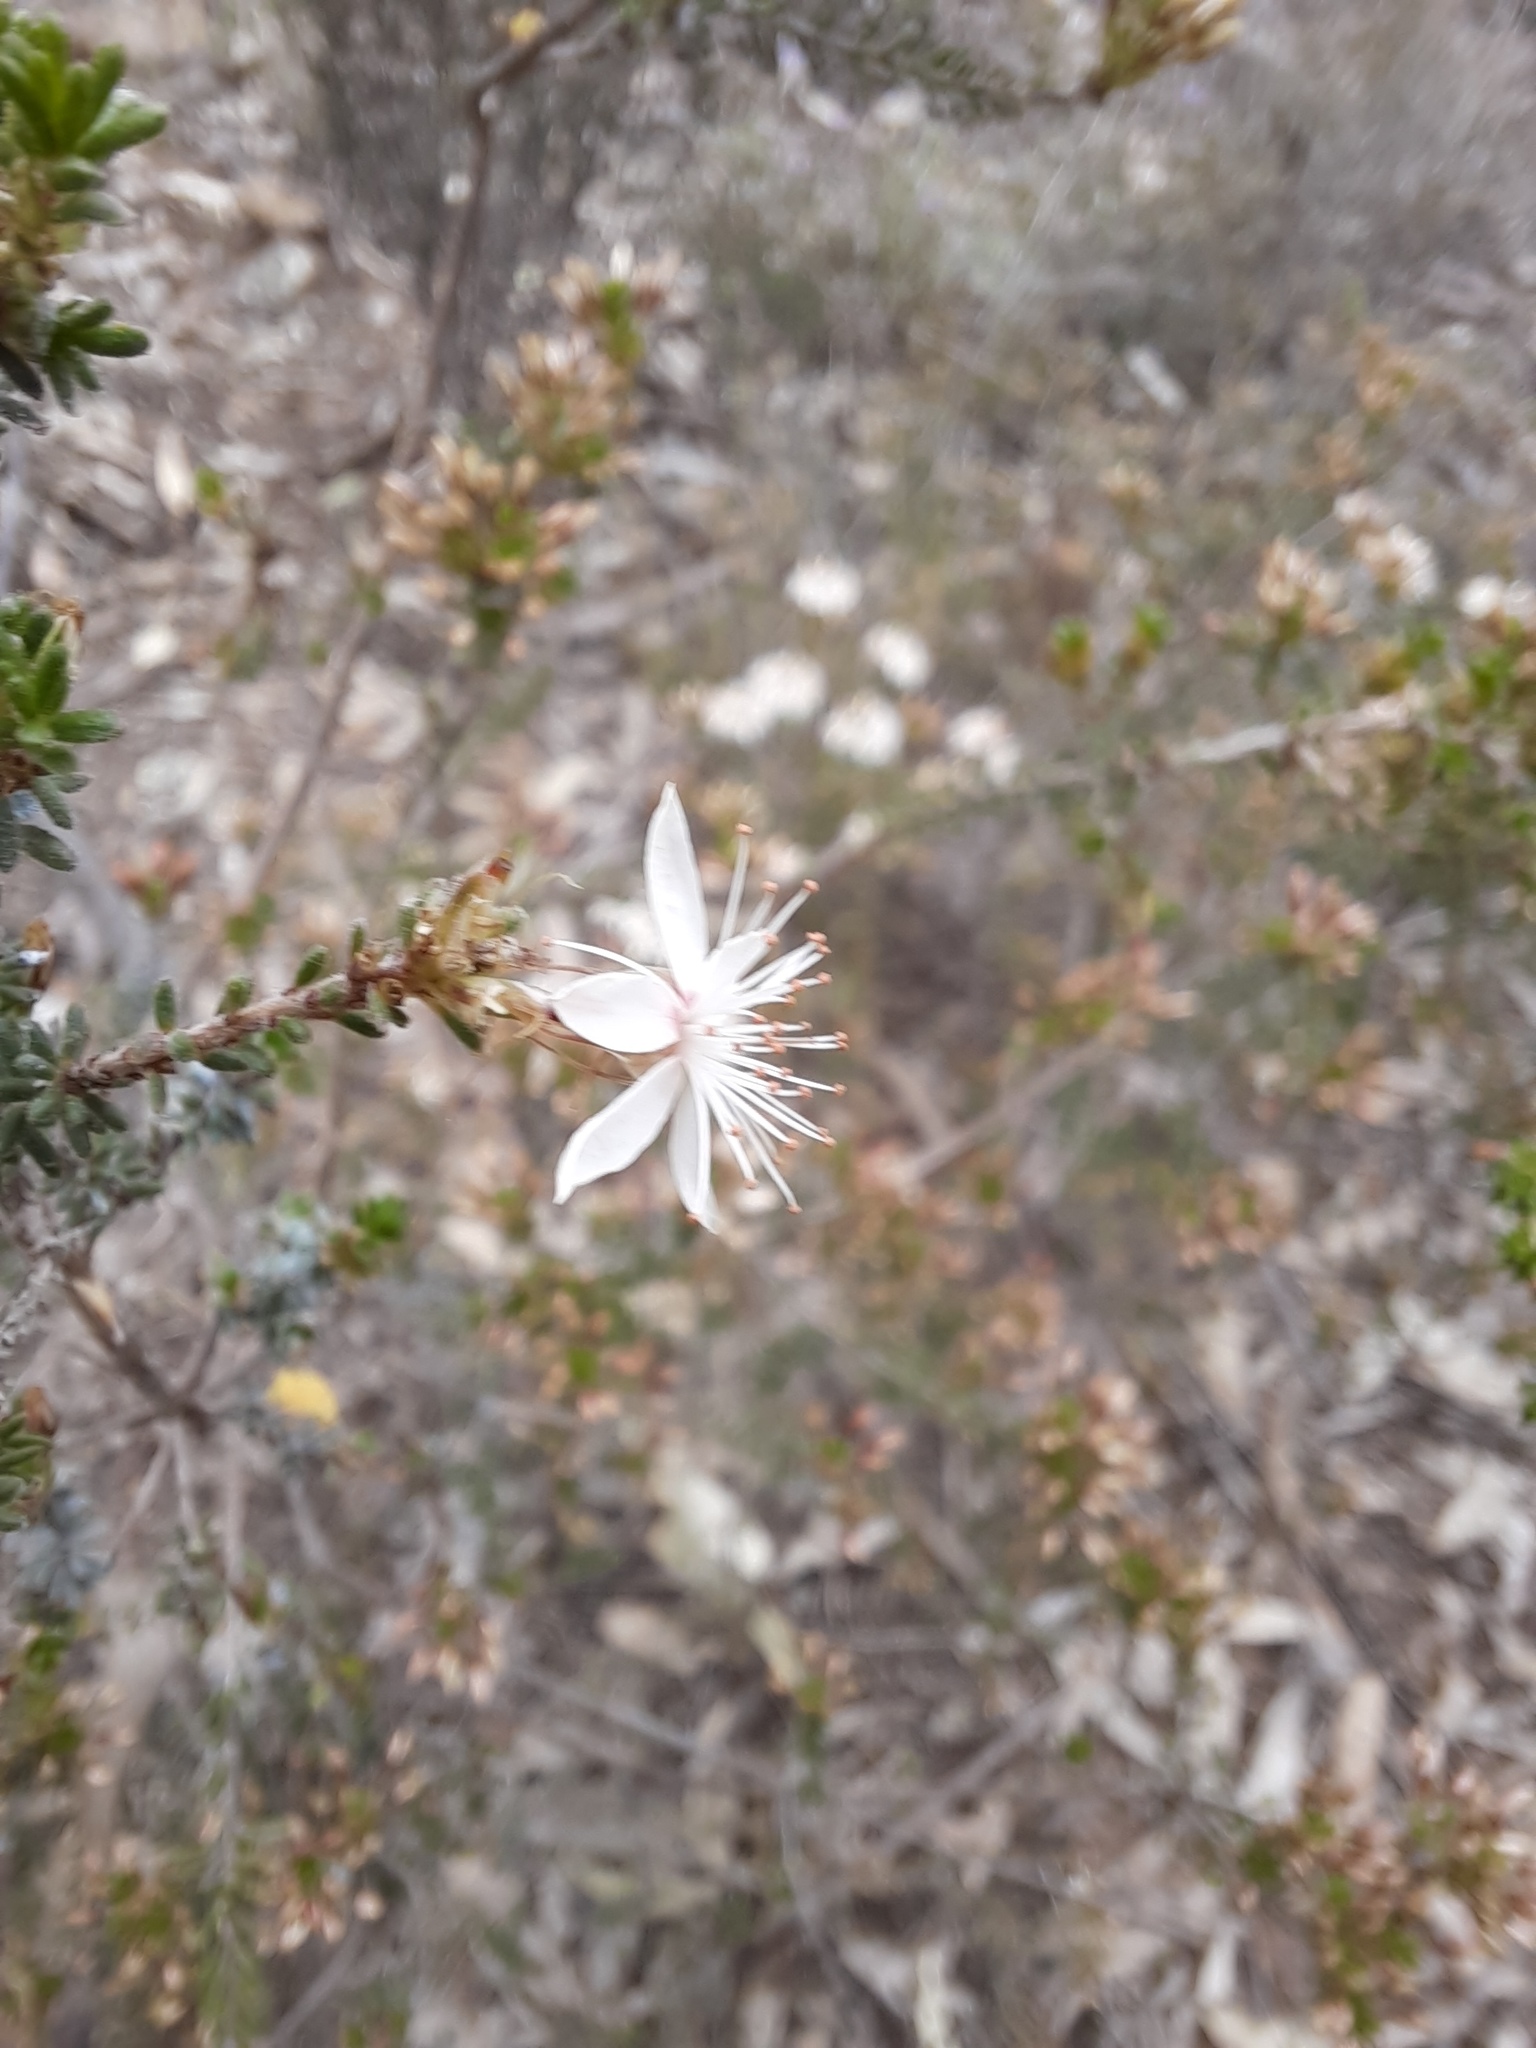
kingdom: Plantae
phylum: Tracheophyta
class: Magnoliopsida
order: Myrtales
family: Myrtaceae
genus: Calytrix
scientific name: Calytrix tetragona
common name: Common fringe myrtle
